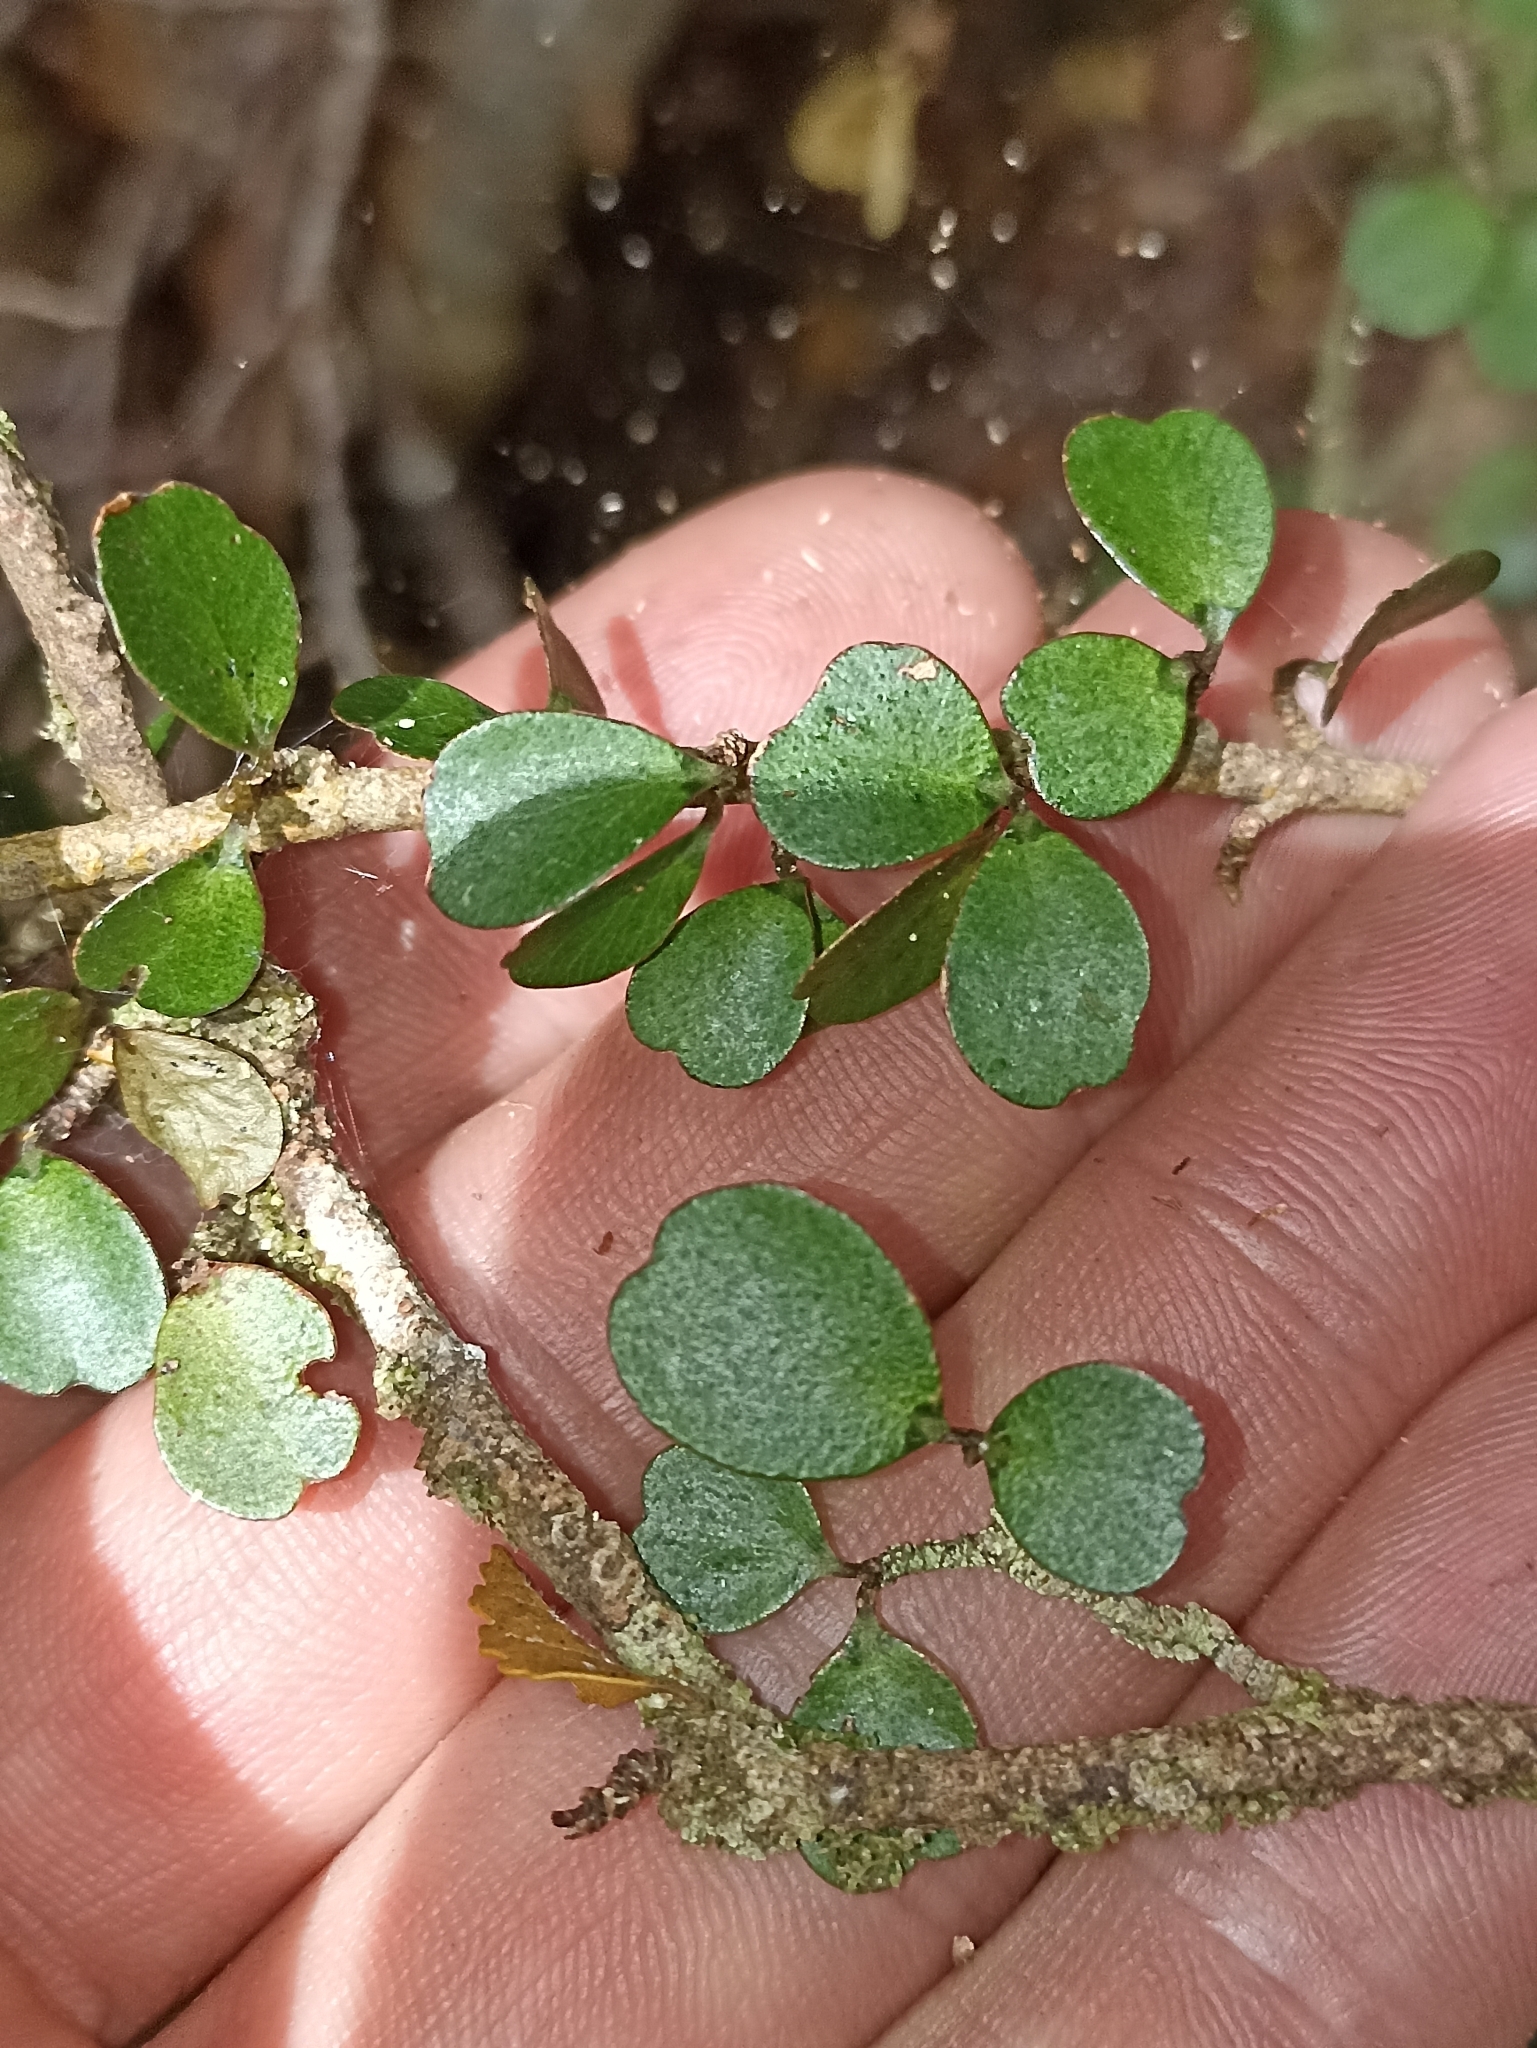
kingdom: Plantae
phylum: Tracheophyta
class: Magnoliopsida
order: Ericales
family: Primulaceae
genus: Myrsine
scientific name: Myrsine divaricata
